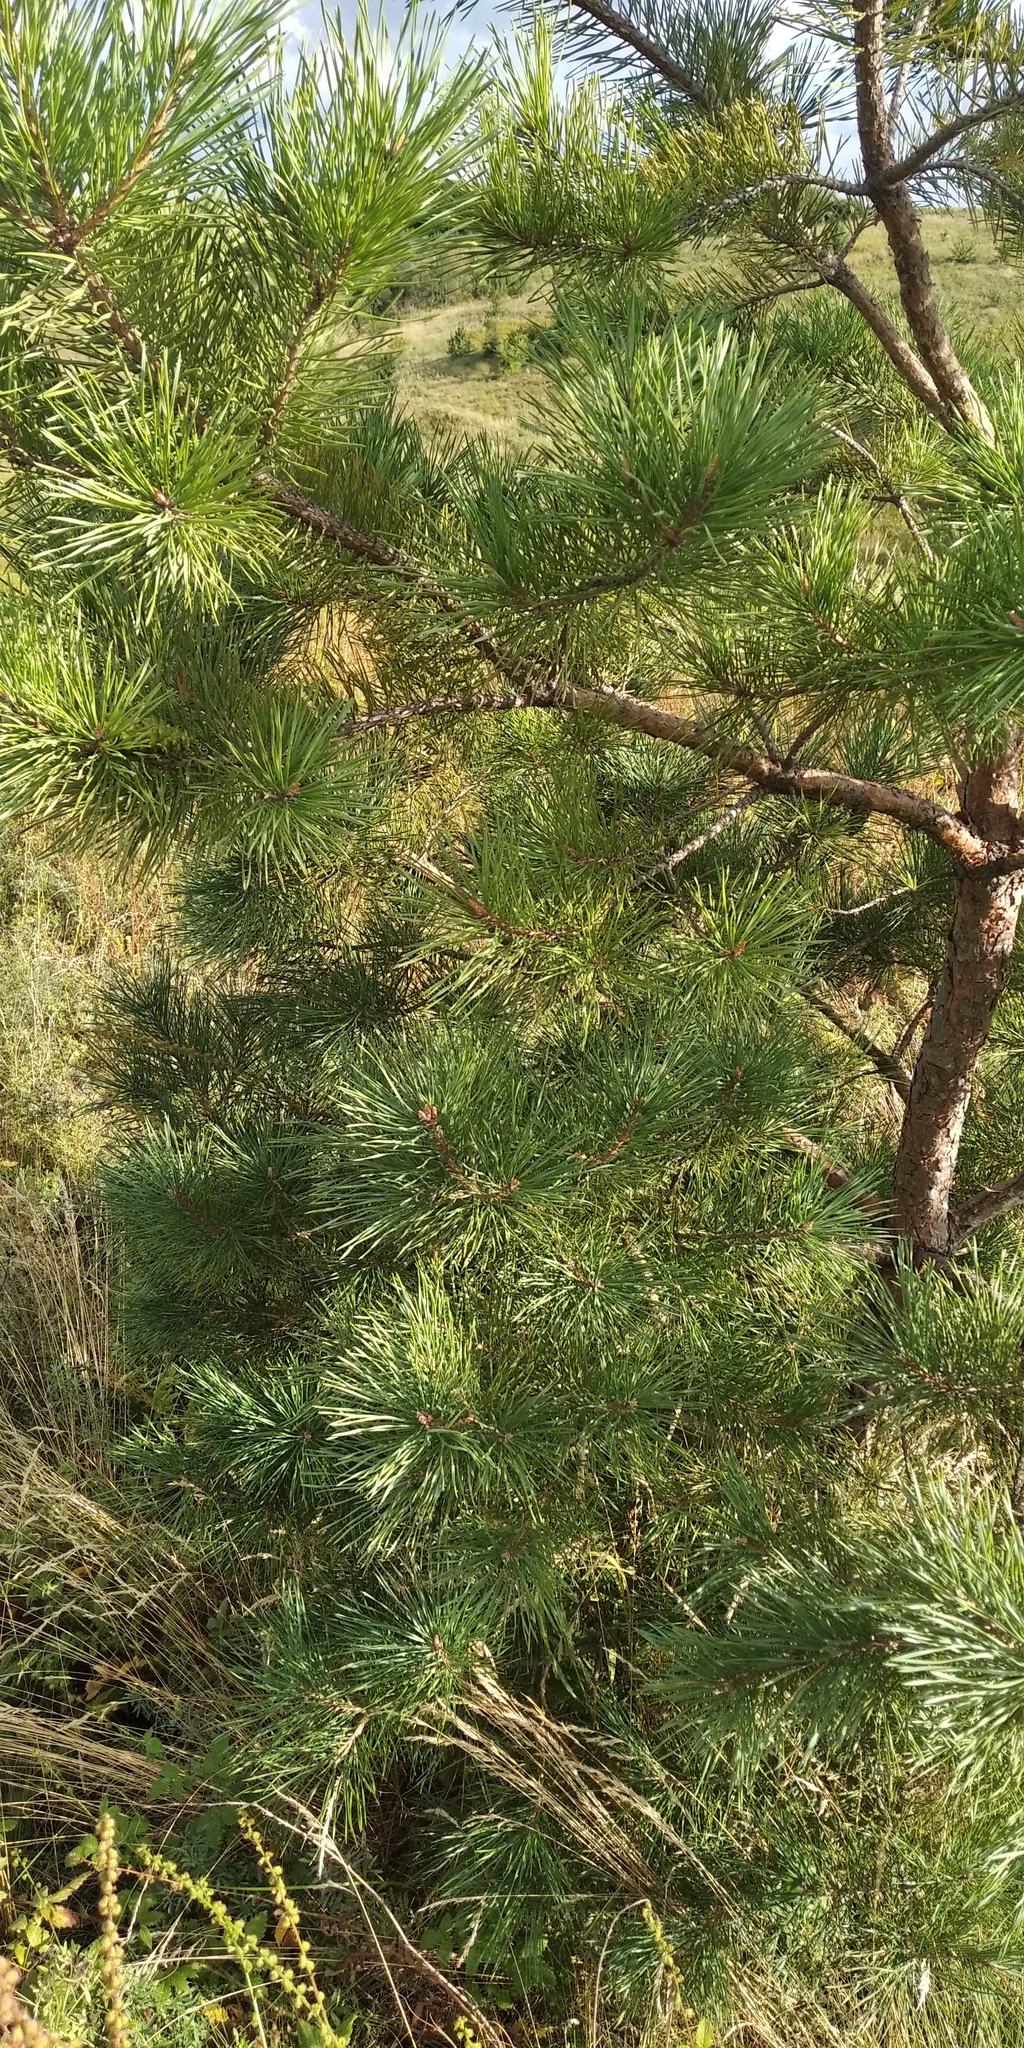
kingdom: Plantae
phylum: Tracheophyta
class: Pinopsida
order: Pinales
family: Pinaceae
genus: Pinus
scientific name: Pinus sylvestris
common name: Scots pine
